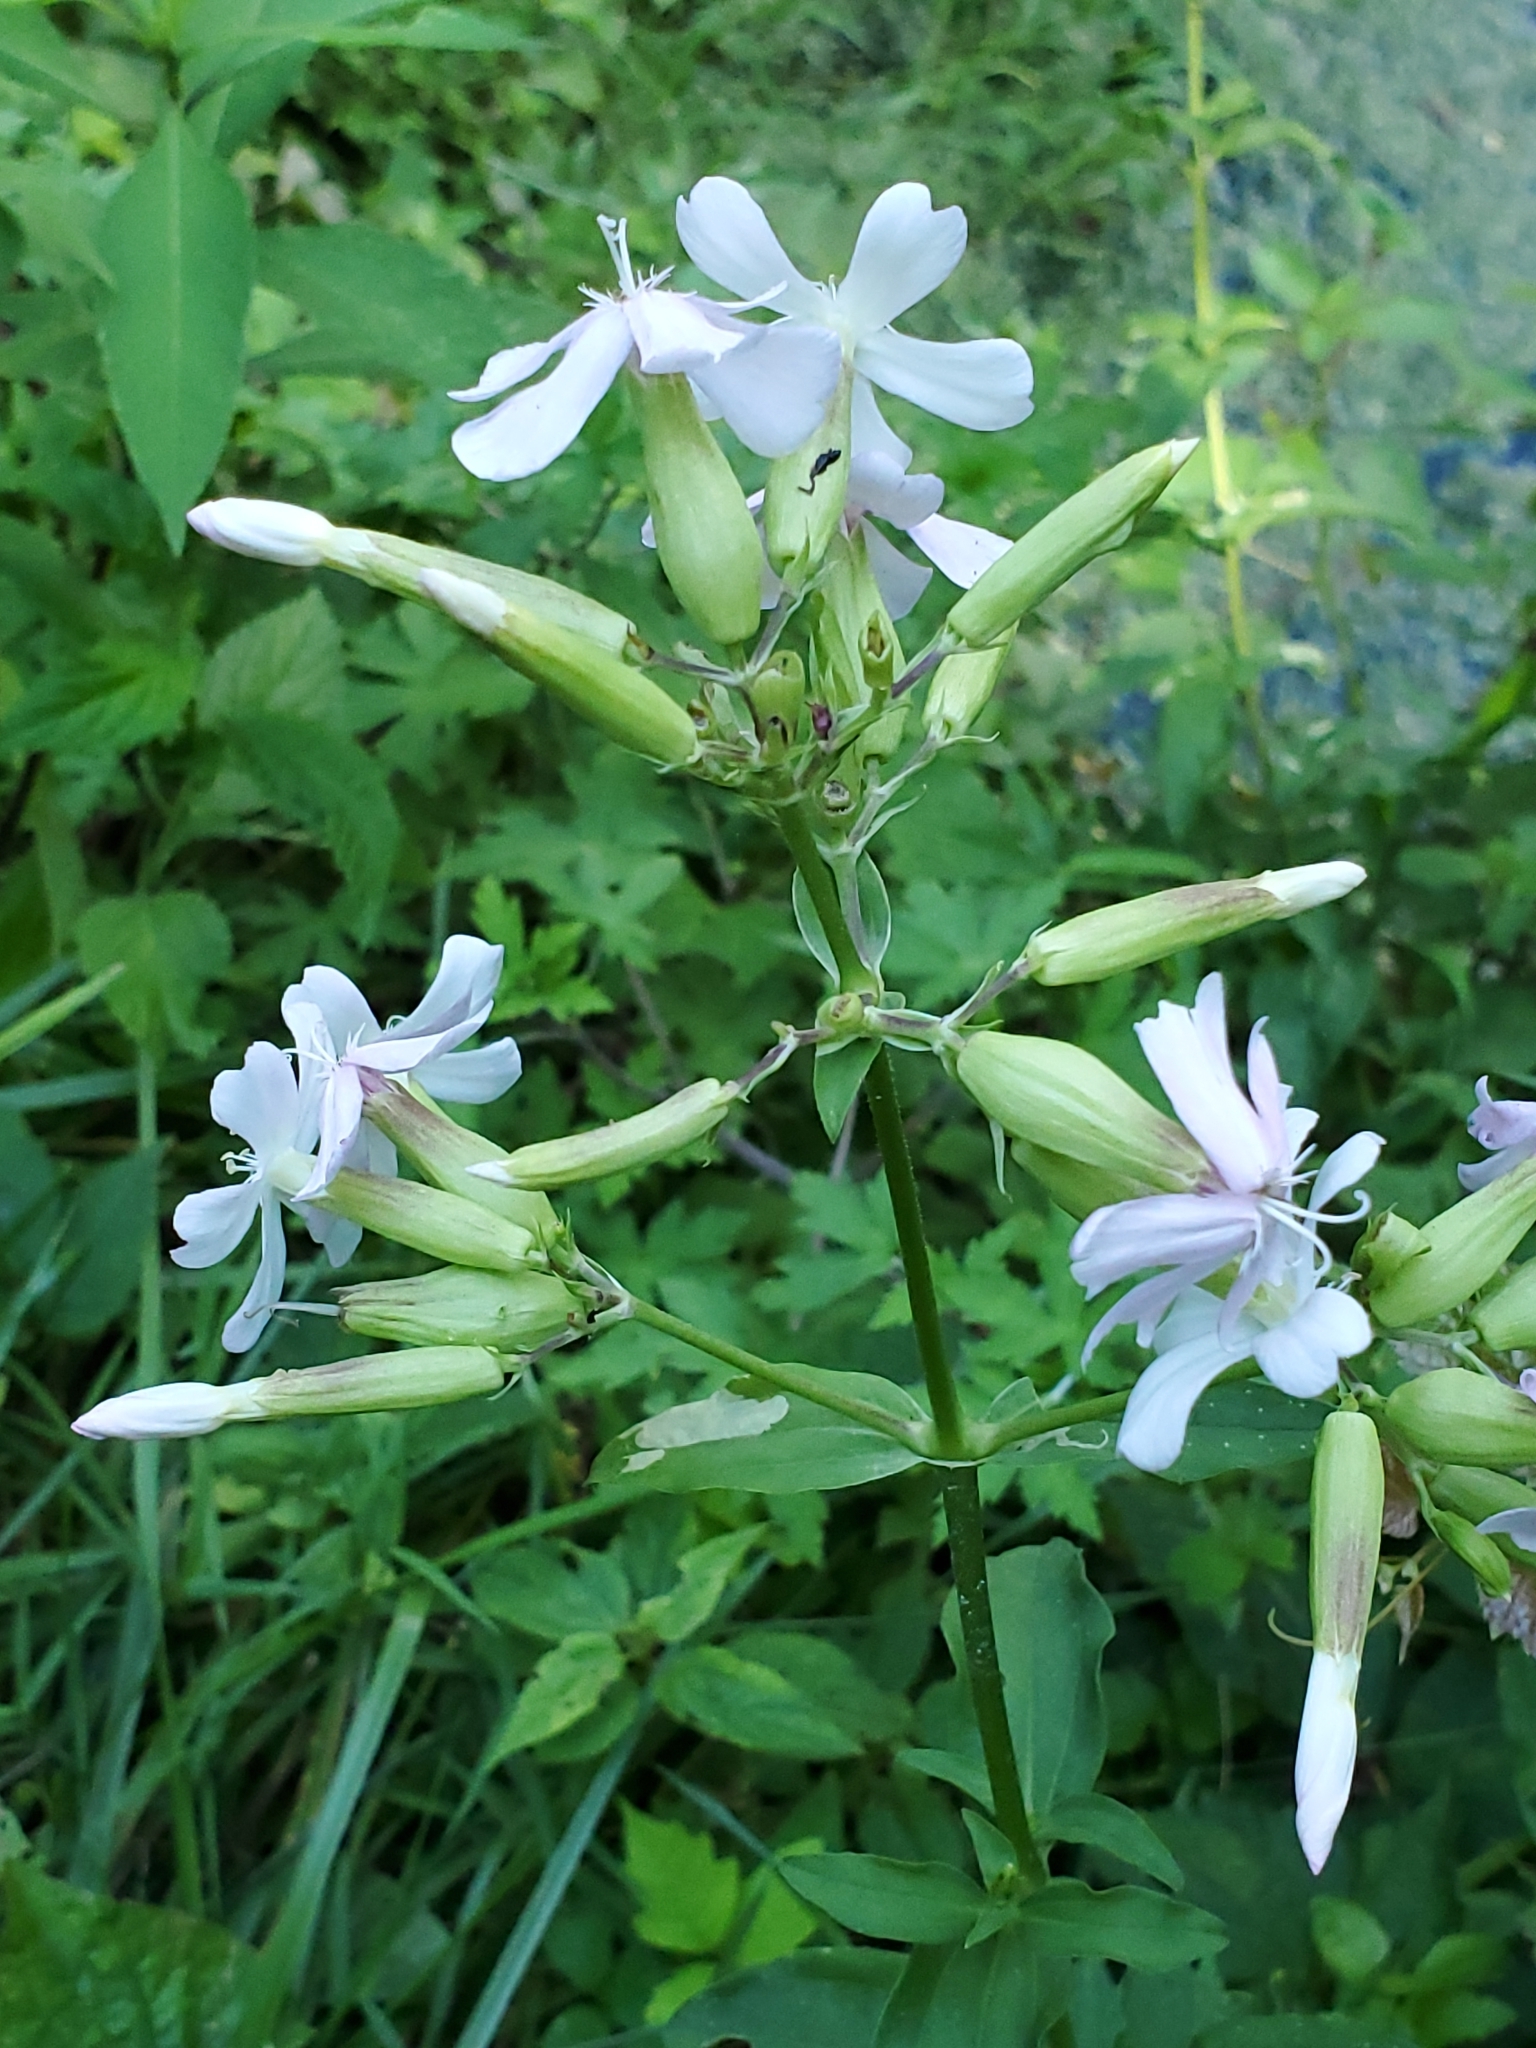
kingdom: Plantae
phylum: Tracheophyta
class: Magnoliopsida
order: Caryophyllales
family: Caryophyllaceae
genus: Saponaria
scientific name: Saponaria officinalis
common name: Soapwort
